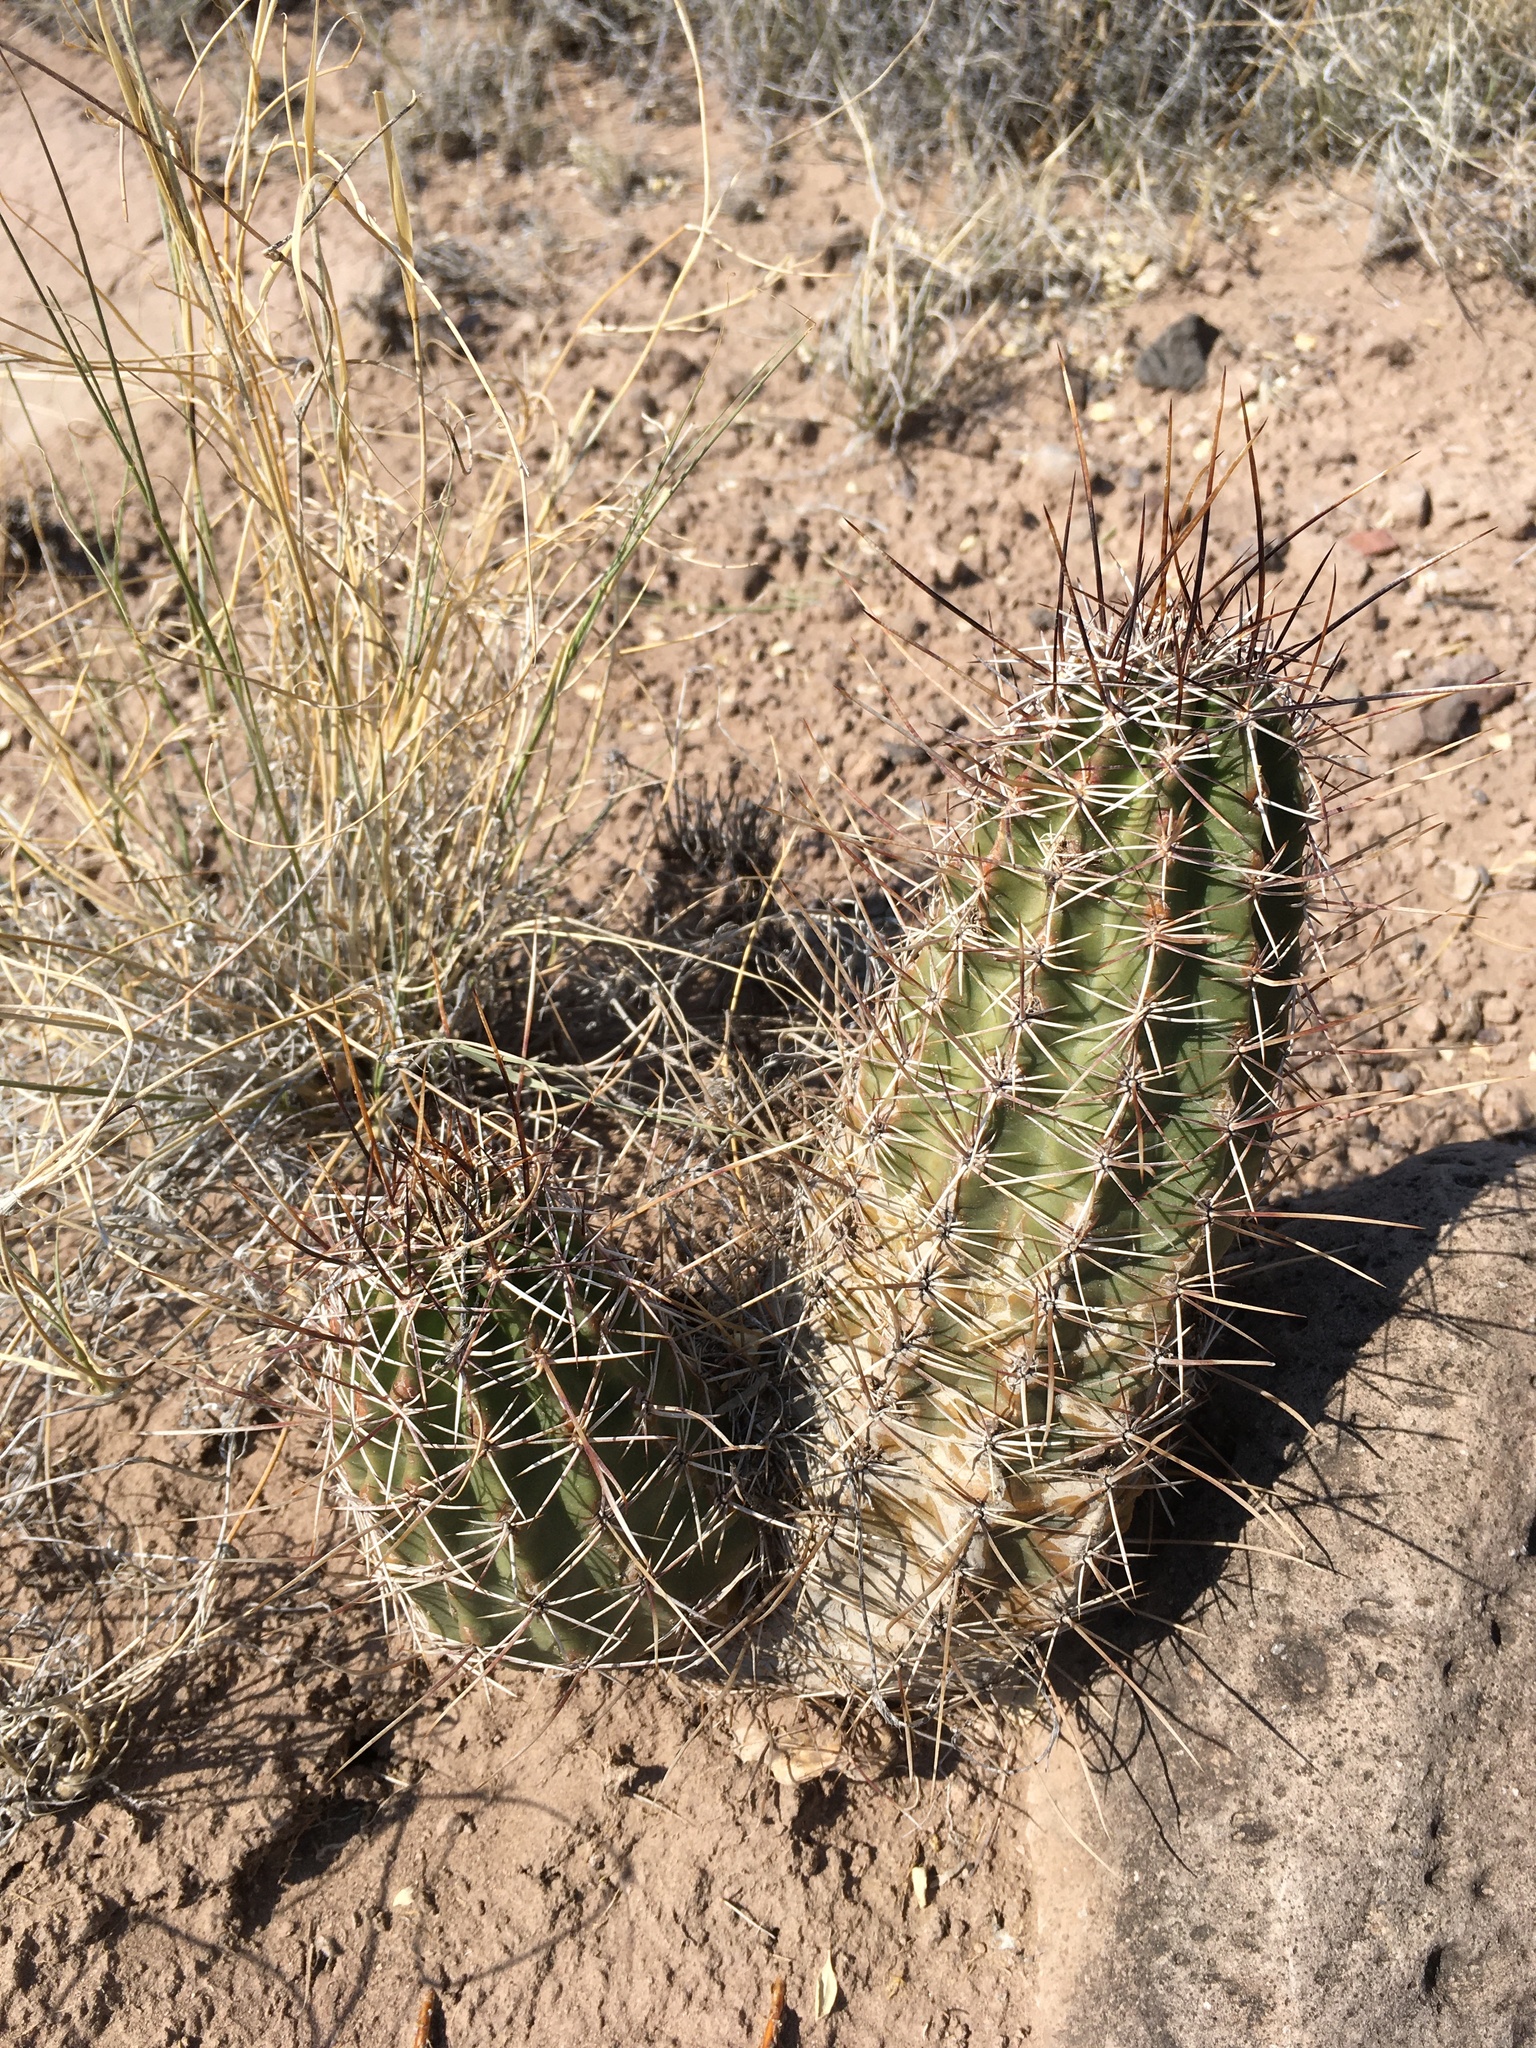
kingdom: Plantae
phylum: Tracheophyta
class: Magnoliopsida
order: Caryophyllales
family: Cactaceae
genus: Echinocereus
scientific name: Echinocereus fendleri
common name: Fendler's hedgehog cactus
